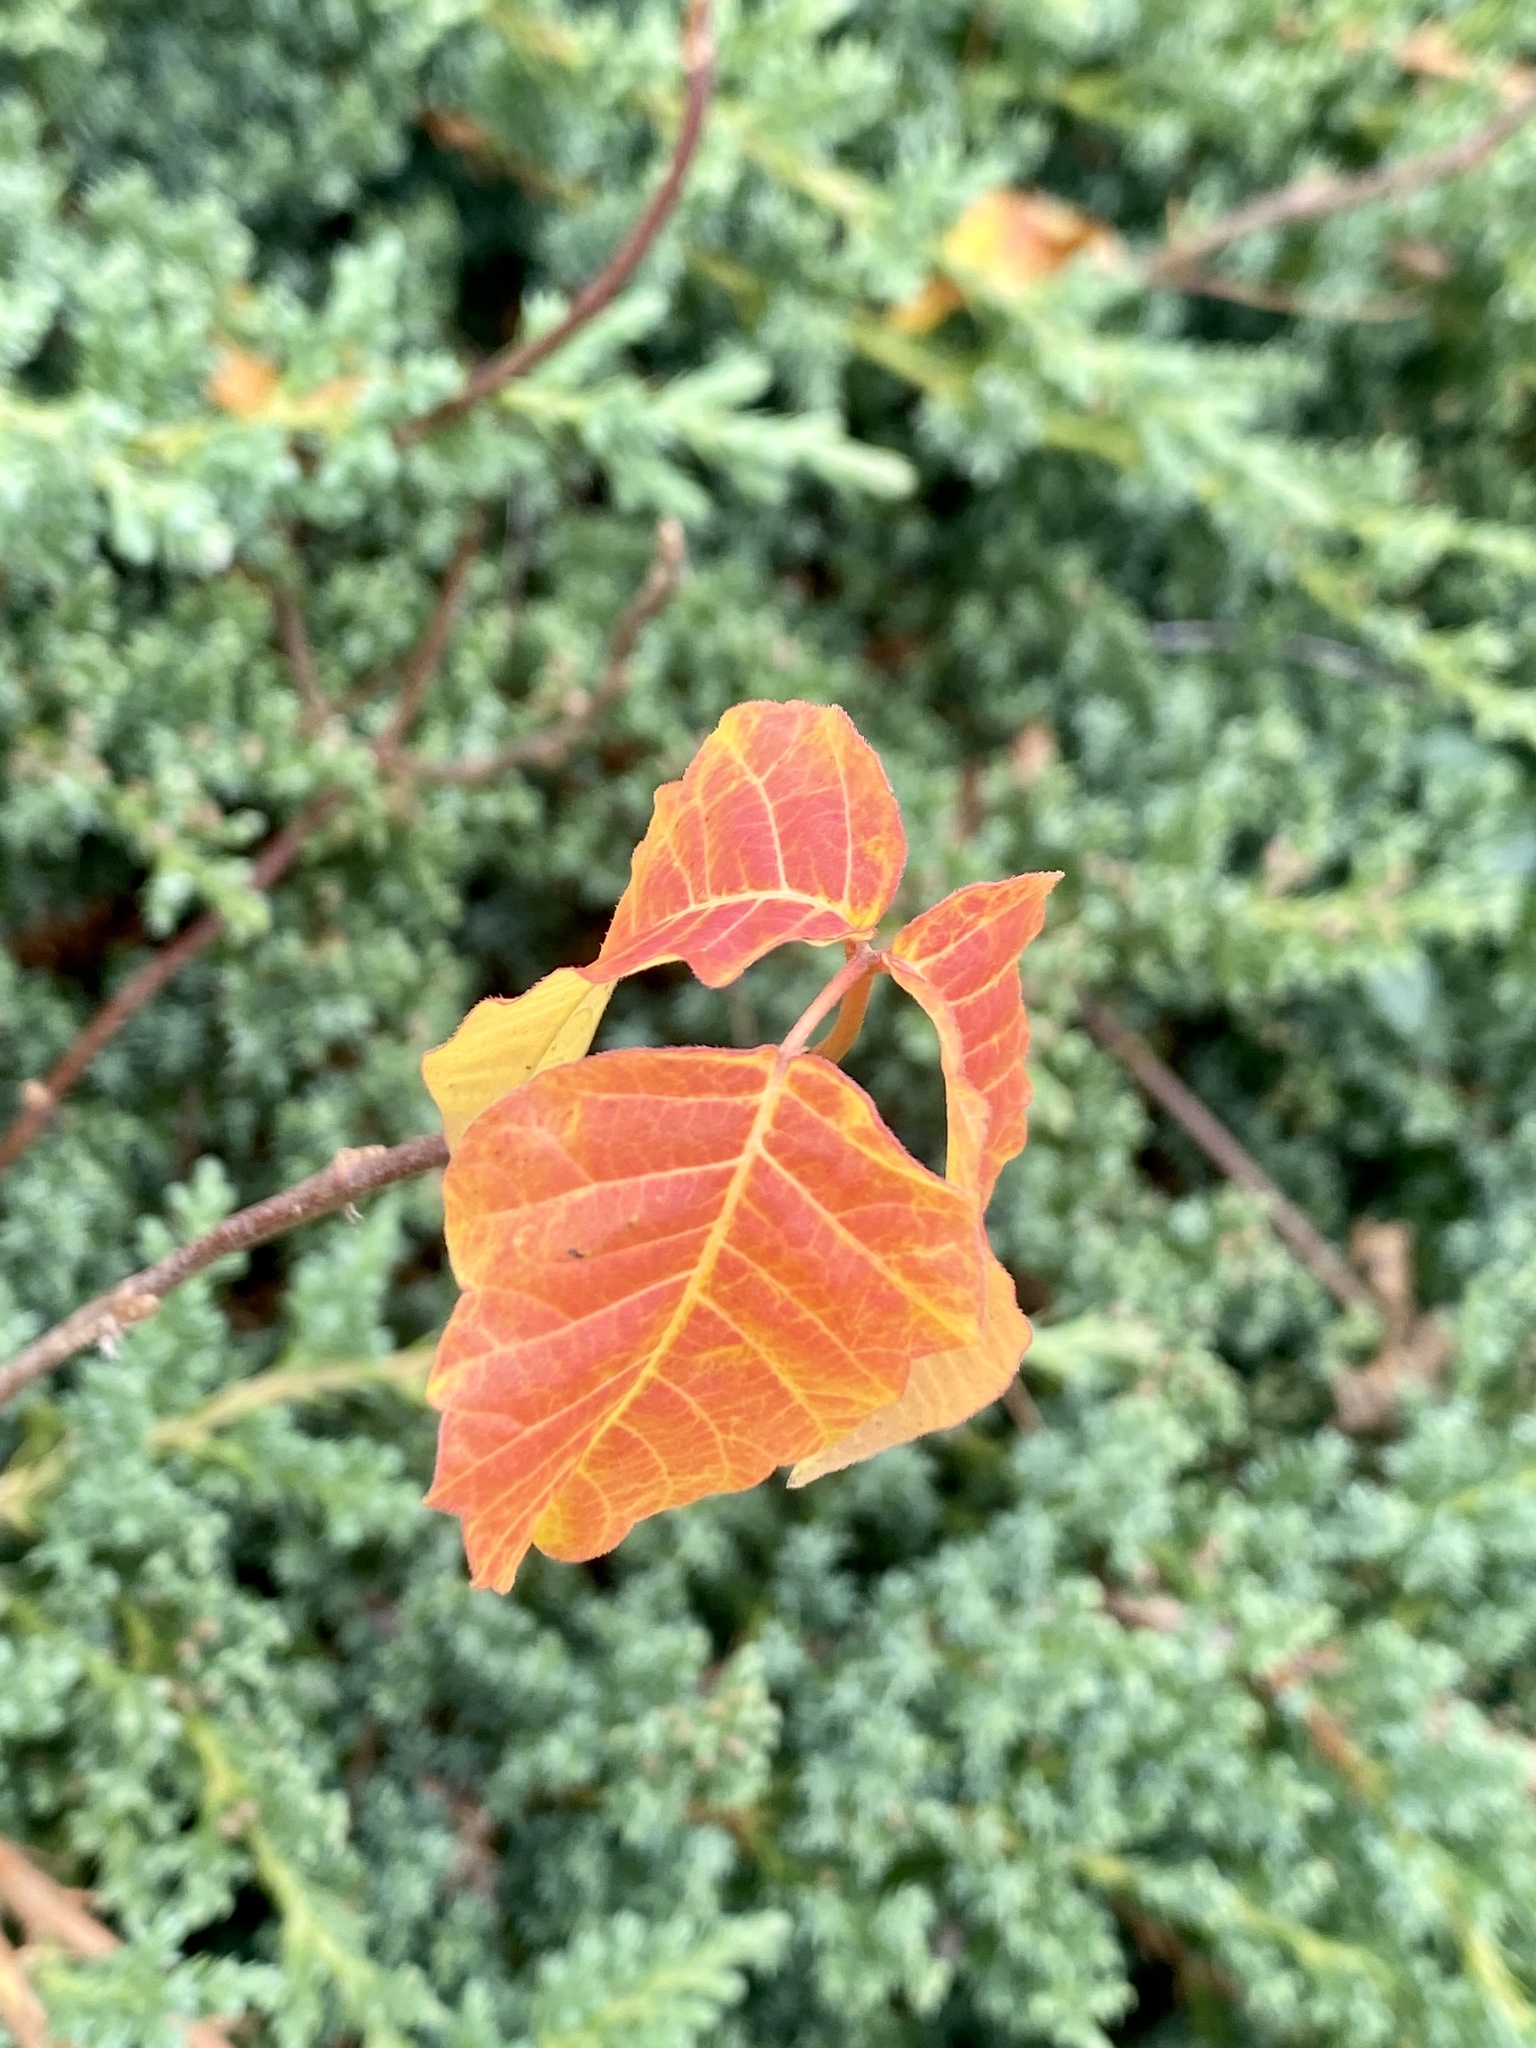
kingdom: Plantae
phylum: Tracheophyta
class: Magnoliopsida
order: Sapindales
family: Anacardiaceae
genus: Toxicodendron
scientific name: Toxicodendron radicans
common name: Poison ivy
